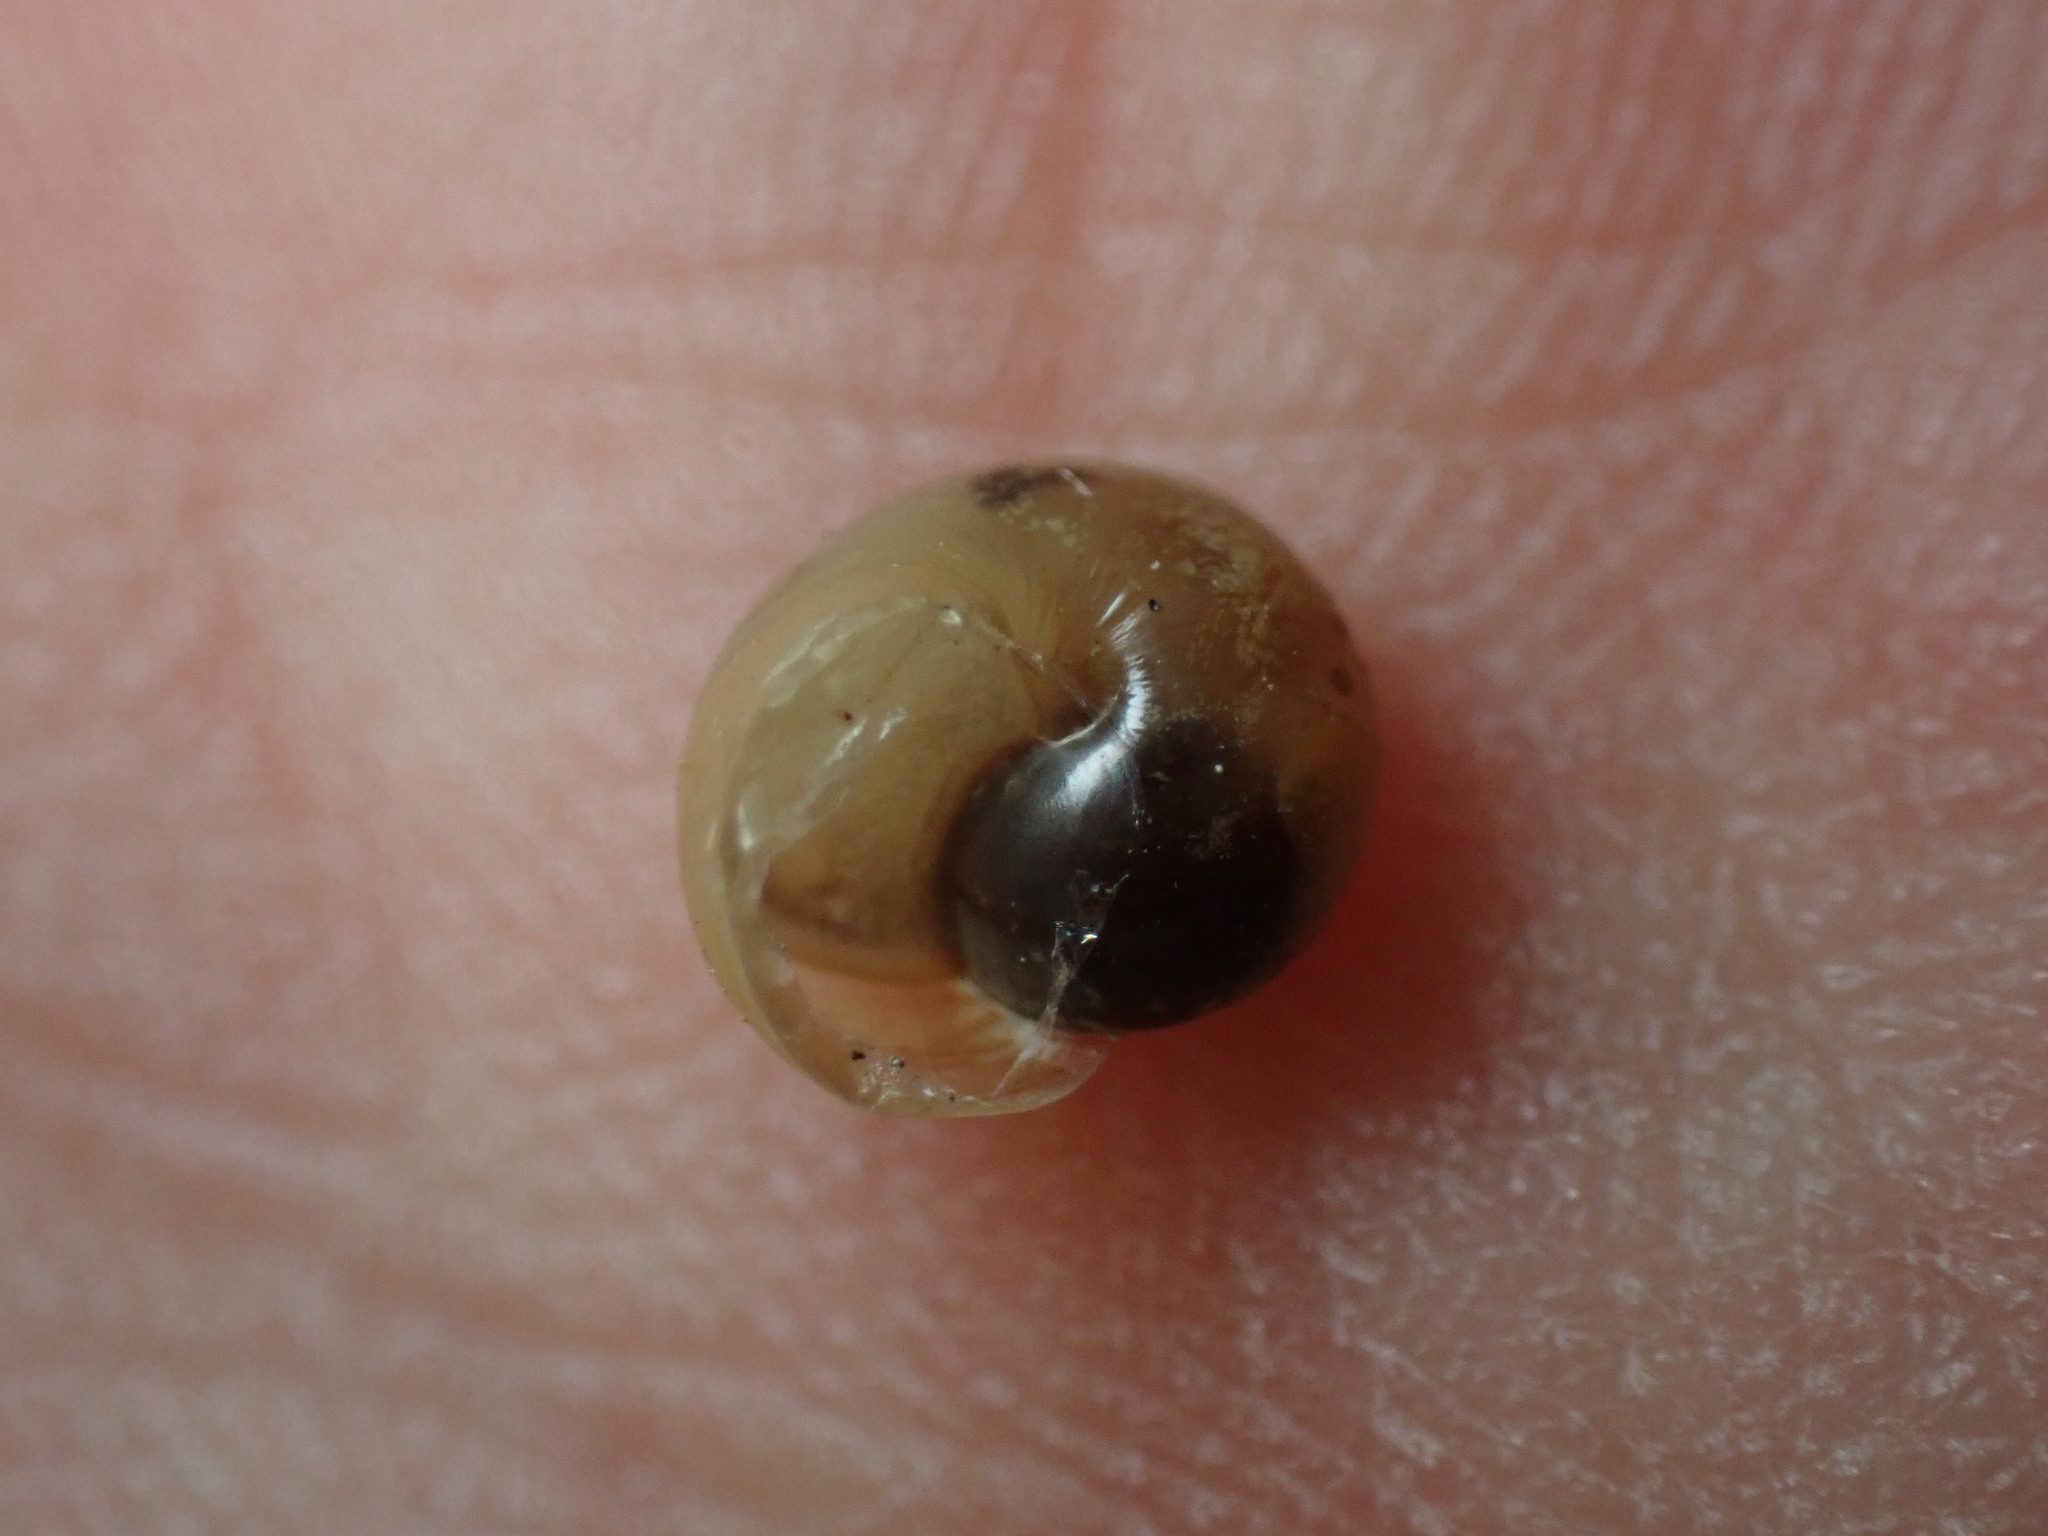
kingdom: Animalia
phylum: Mollusca
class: Gastropoda
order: Stylommatophora
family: Hygromiidae
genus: Portugala
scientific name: Portugala inchoata
